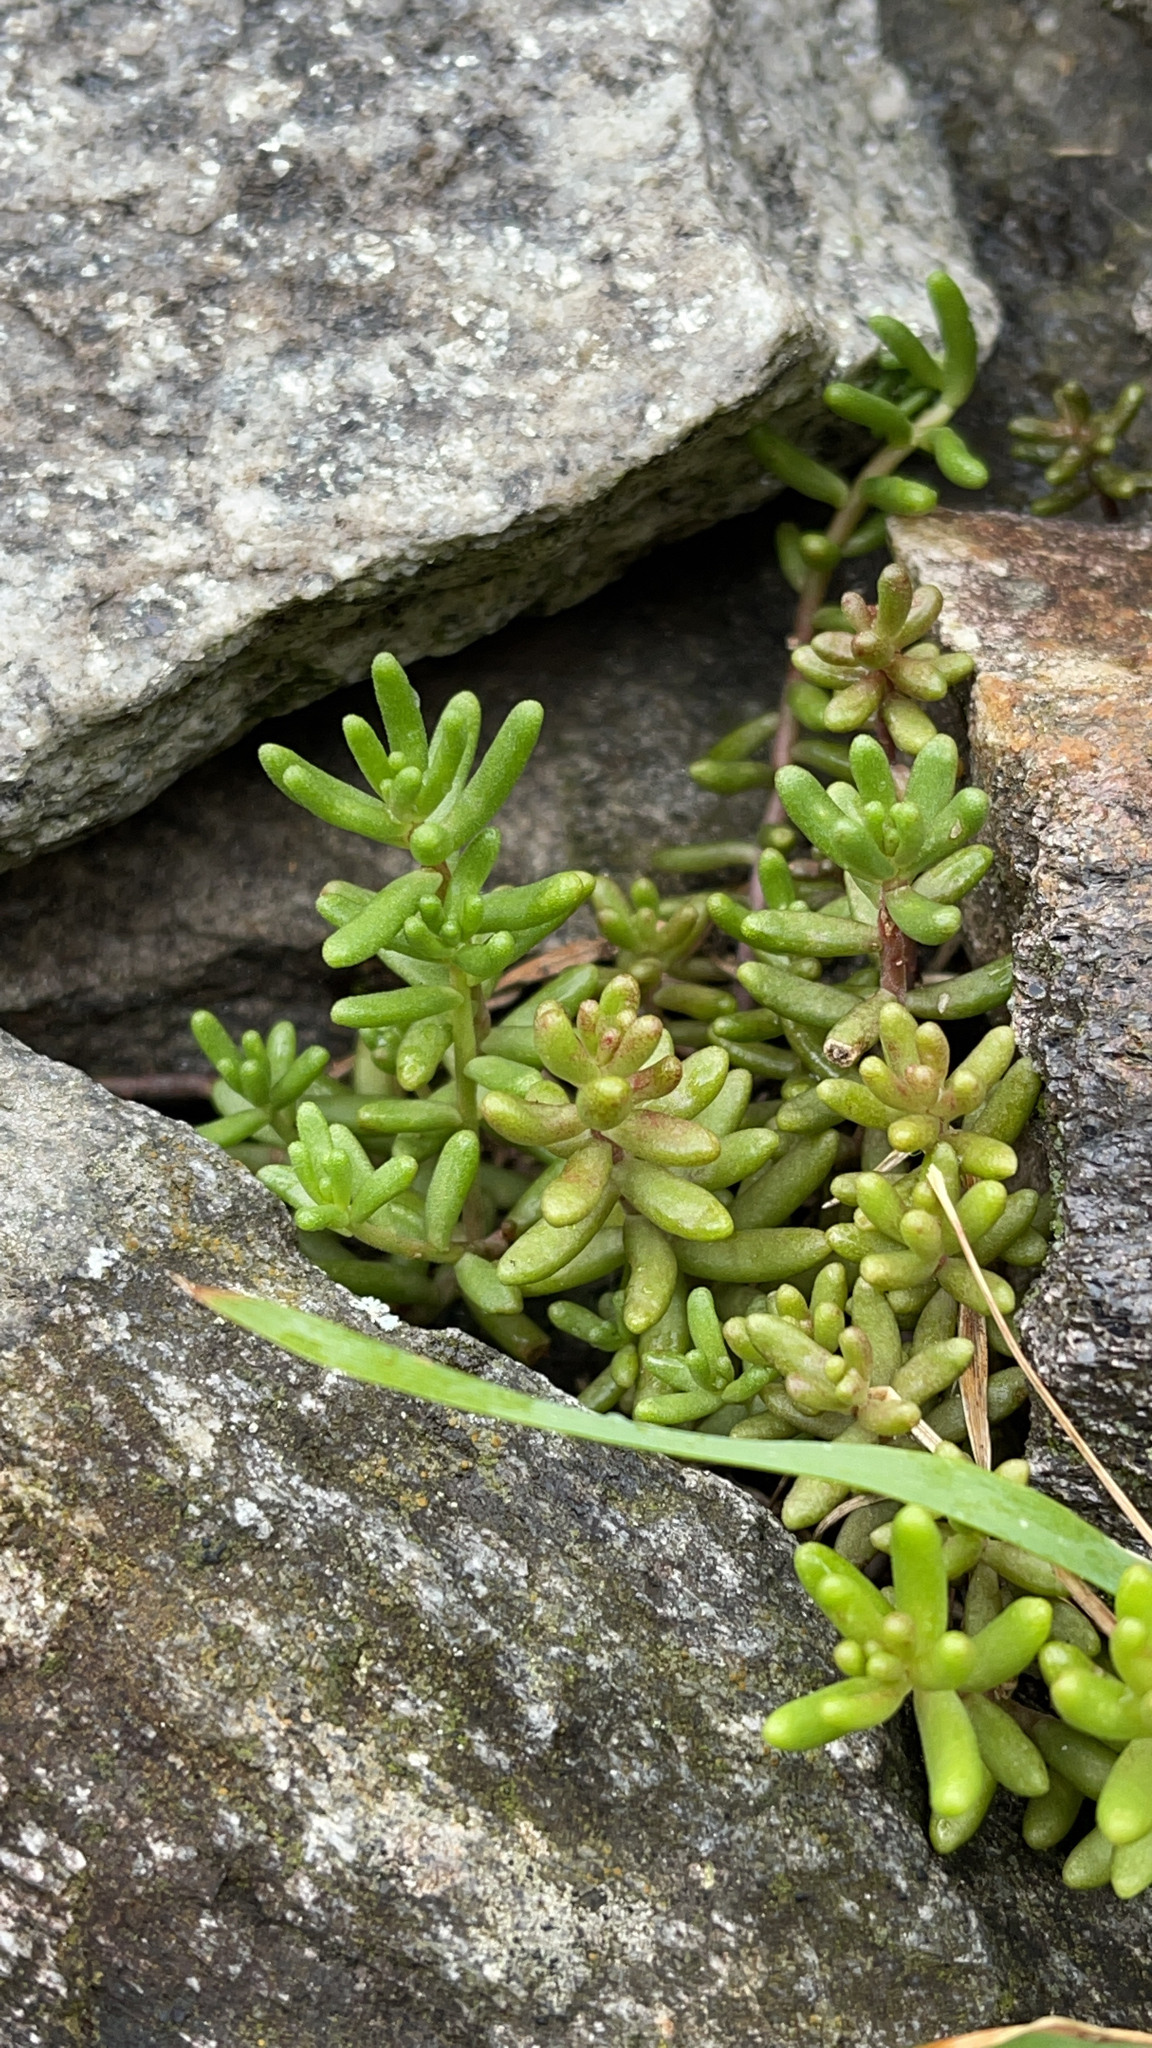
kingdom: Plantae
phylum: Tracheophyta
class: Magnoliopsida
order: Saxifragales
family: Crassulaceae
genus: Sedum
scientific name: Sedum album
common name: White stonecrop
